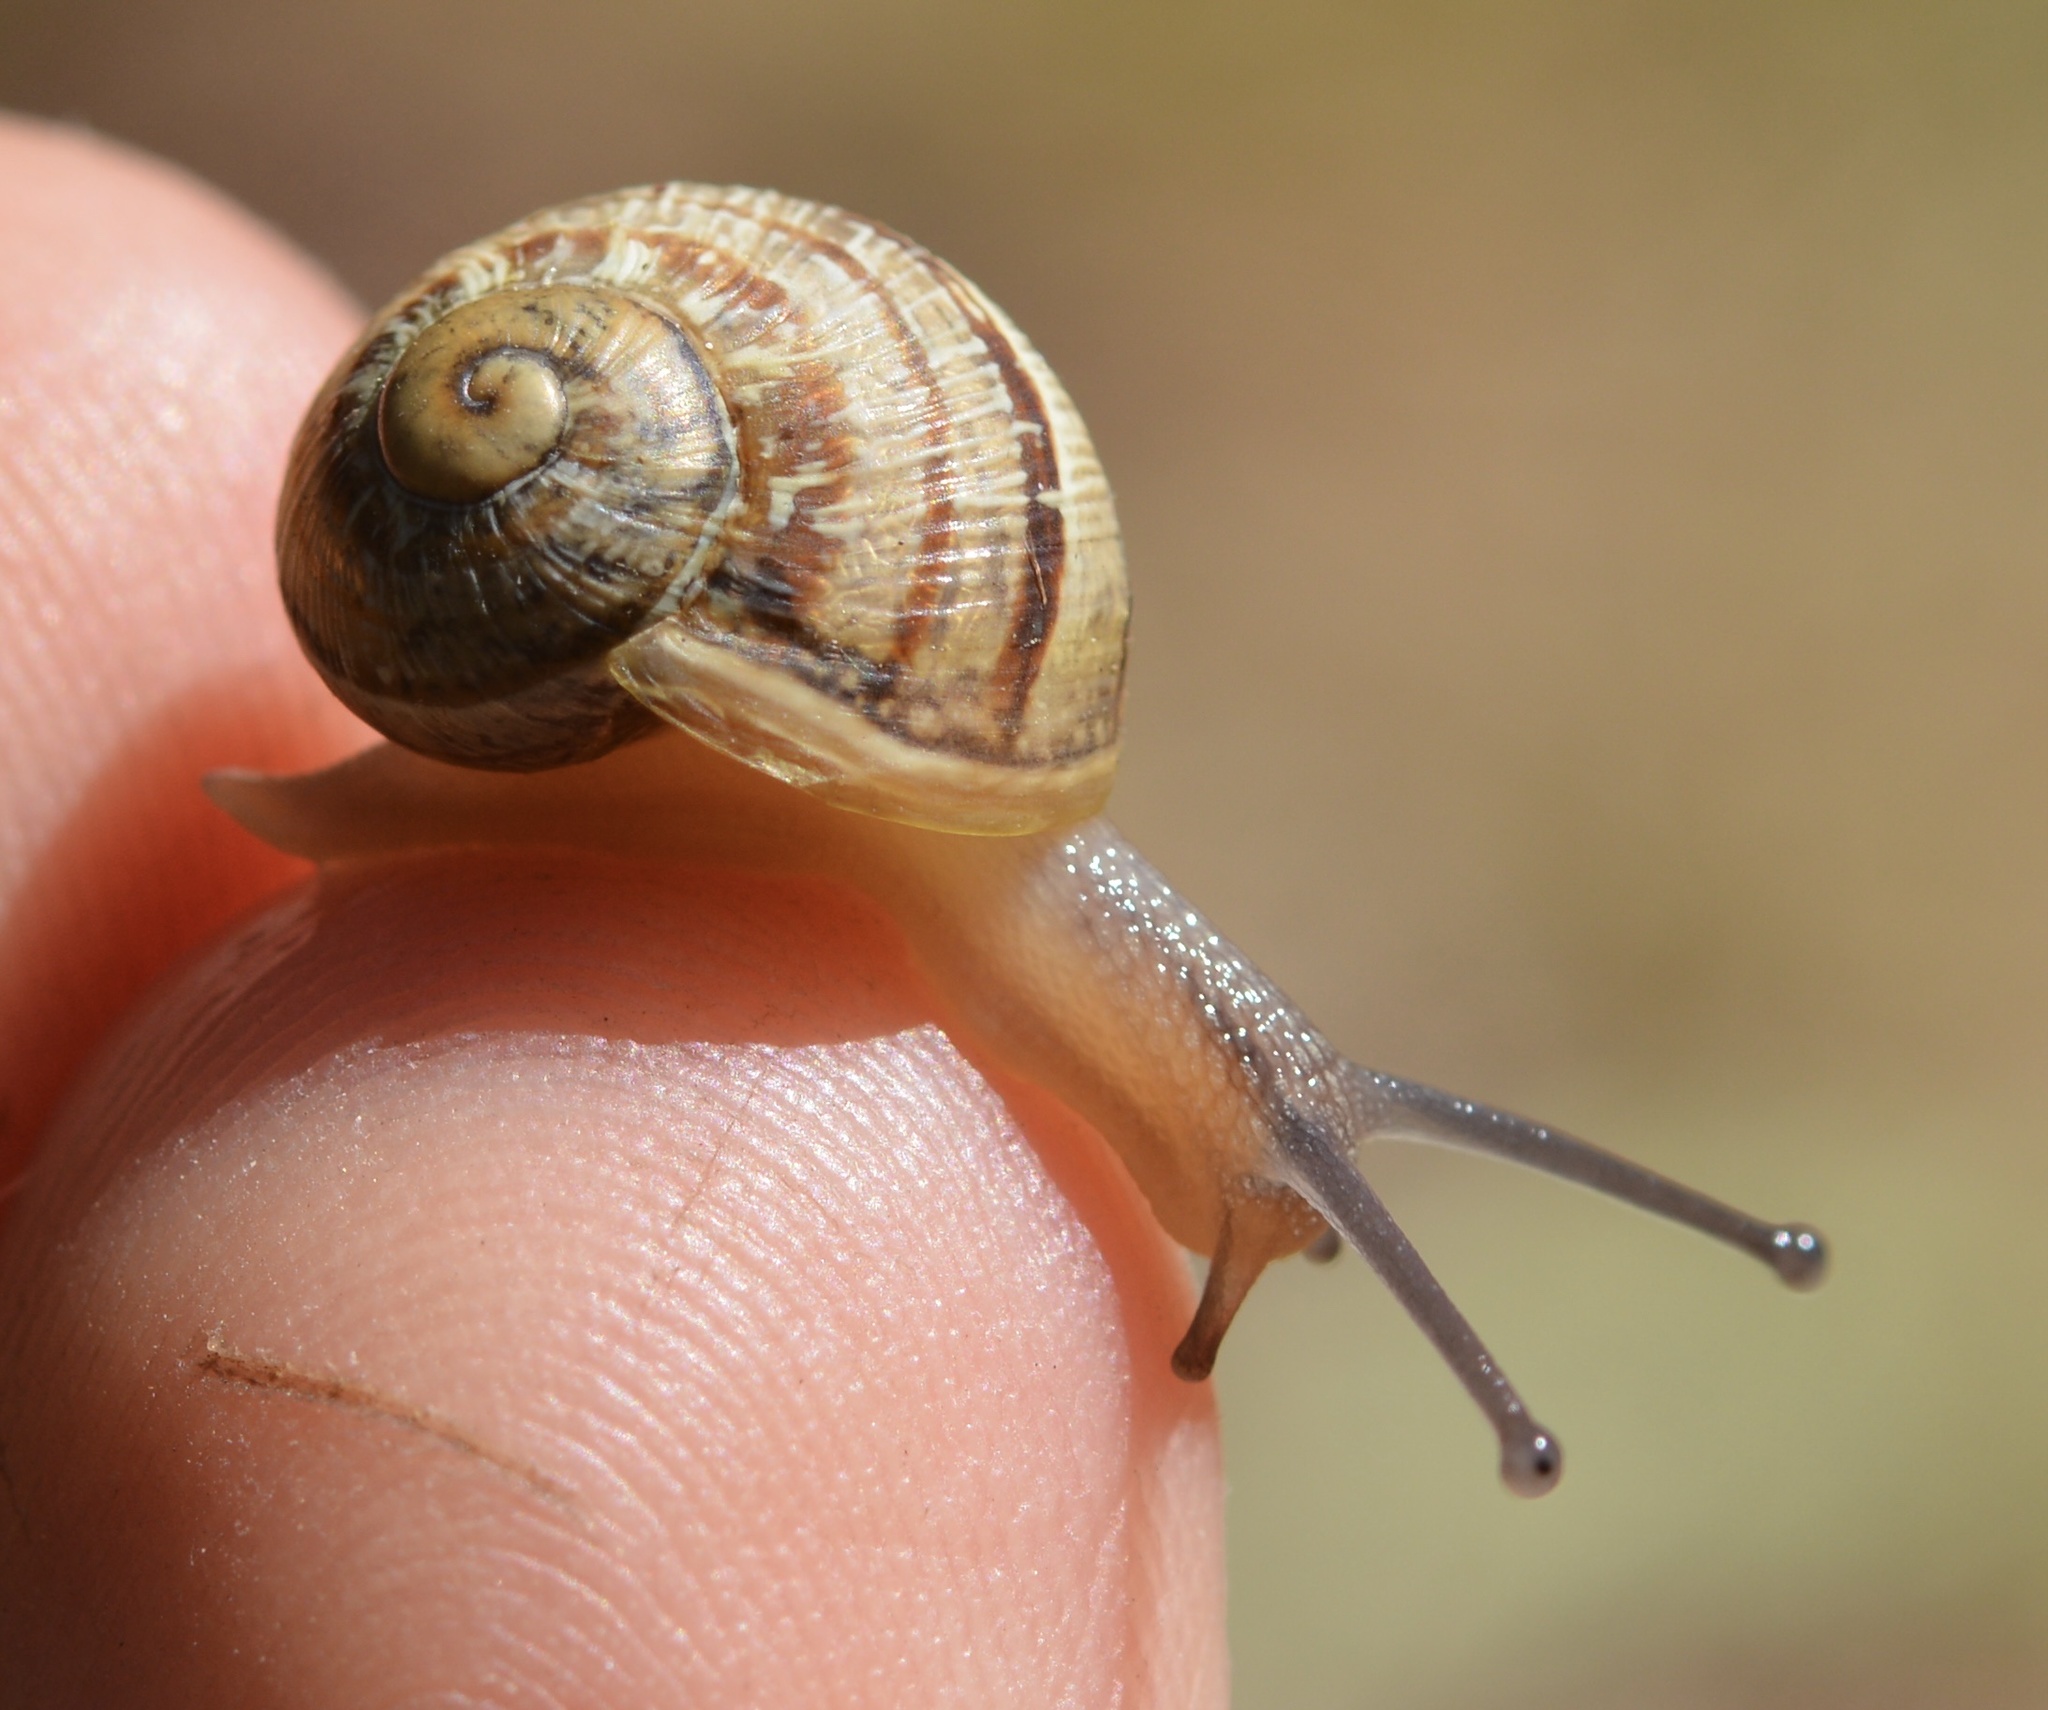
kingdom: Animalia
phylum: Mollusca
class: Gastropoda
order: Stylommatophora
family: Helicidae
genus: Cornu
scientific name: Cornu aspersum
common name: Brown garden snail
